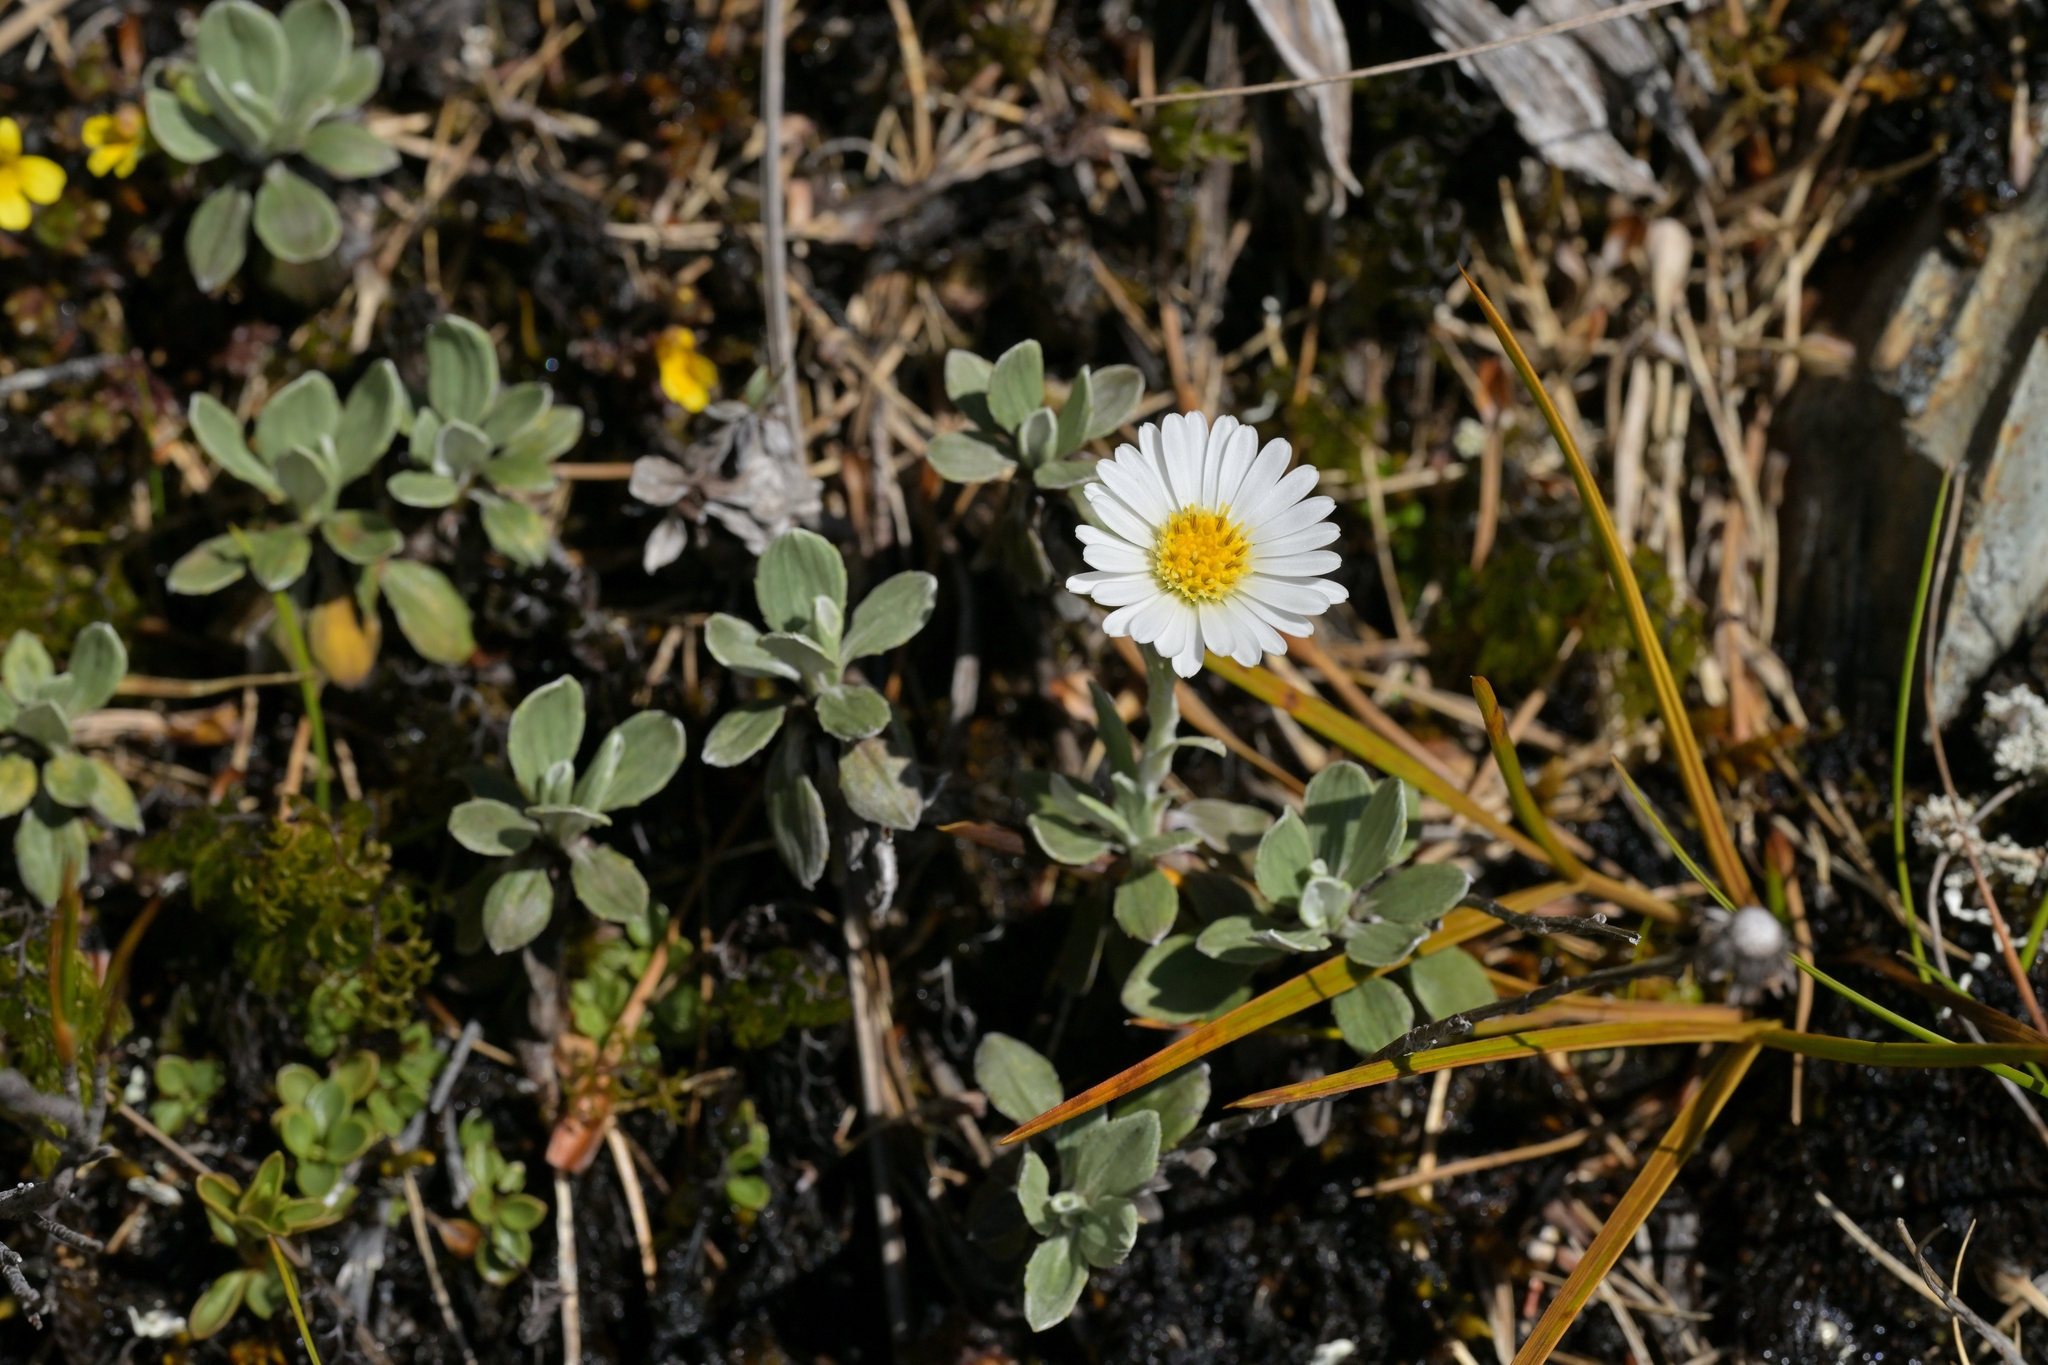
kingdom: Plantae
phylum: Tracheophyta
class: Magnoliopsida
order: Asterales
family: Asteraceae
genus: Celmisia
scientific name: Celmisia discolor
